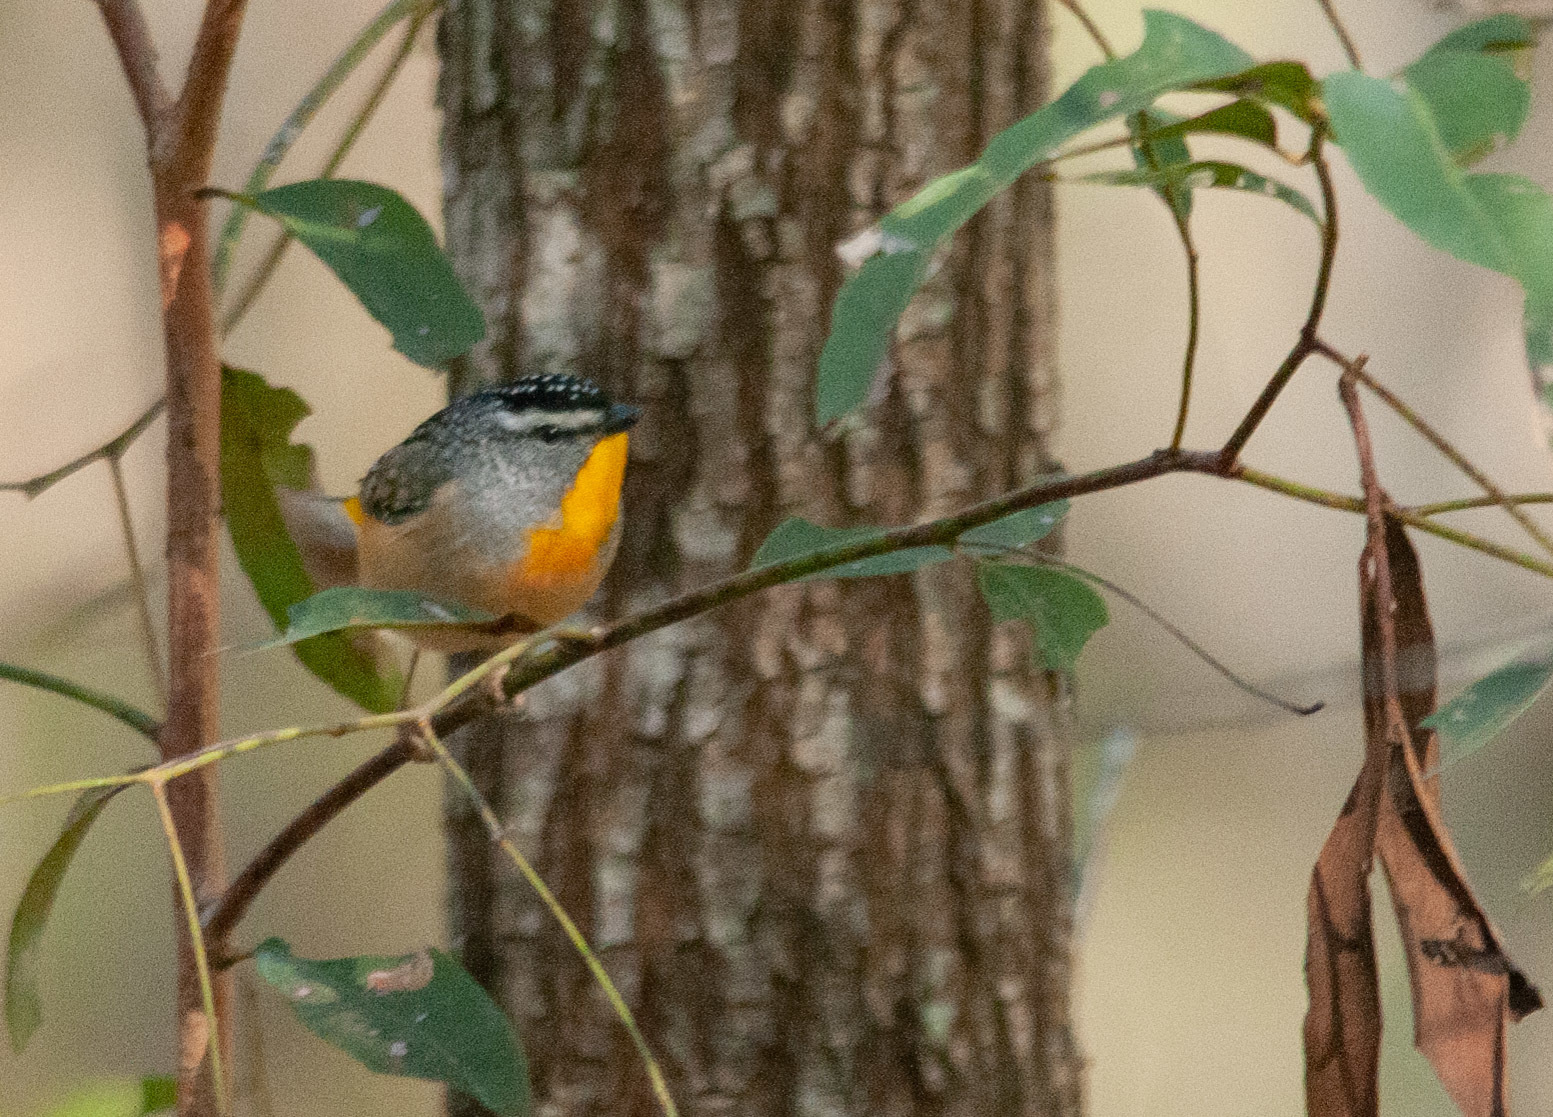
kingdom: Animalia
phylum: Chordata
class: Aves
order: Passeriformes
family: Pardalotidae
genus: Pardalotus
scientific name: Pardalotus punctatus
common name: Spotted pardalote
